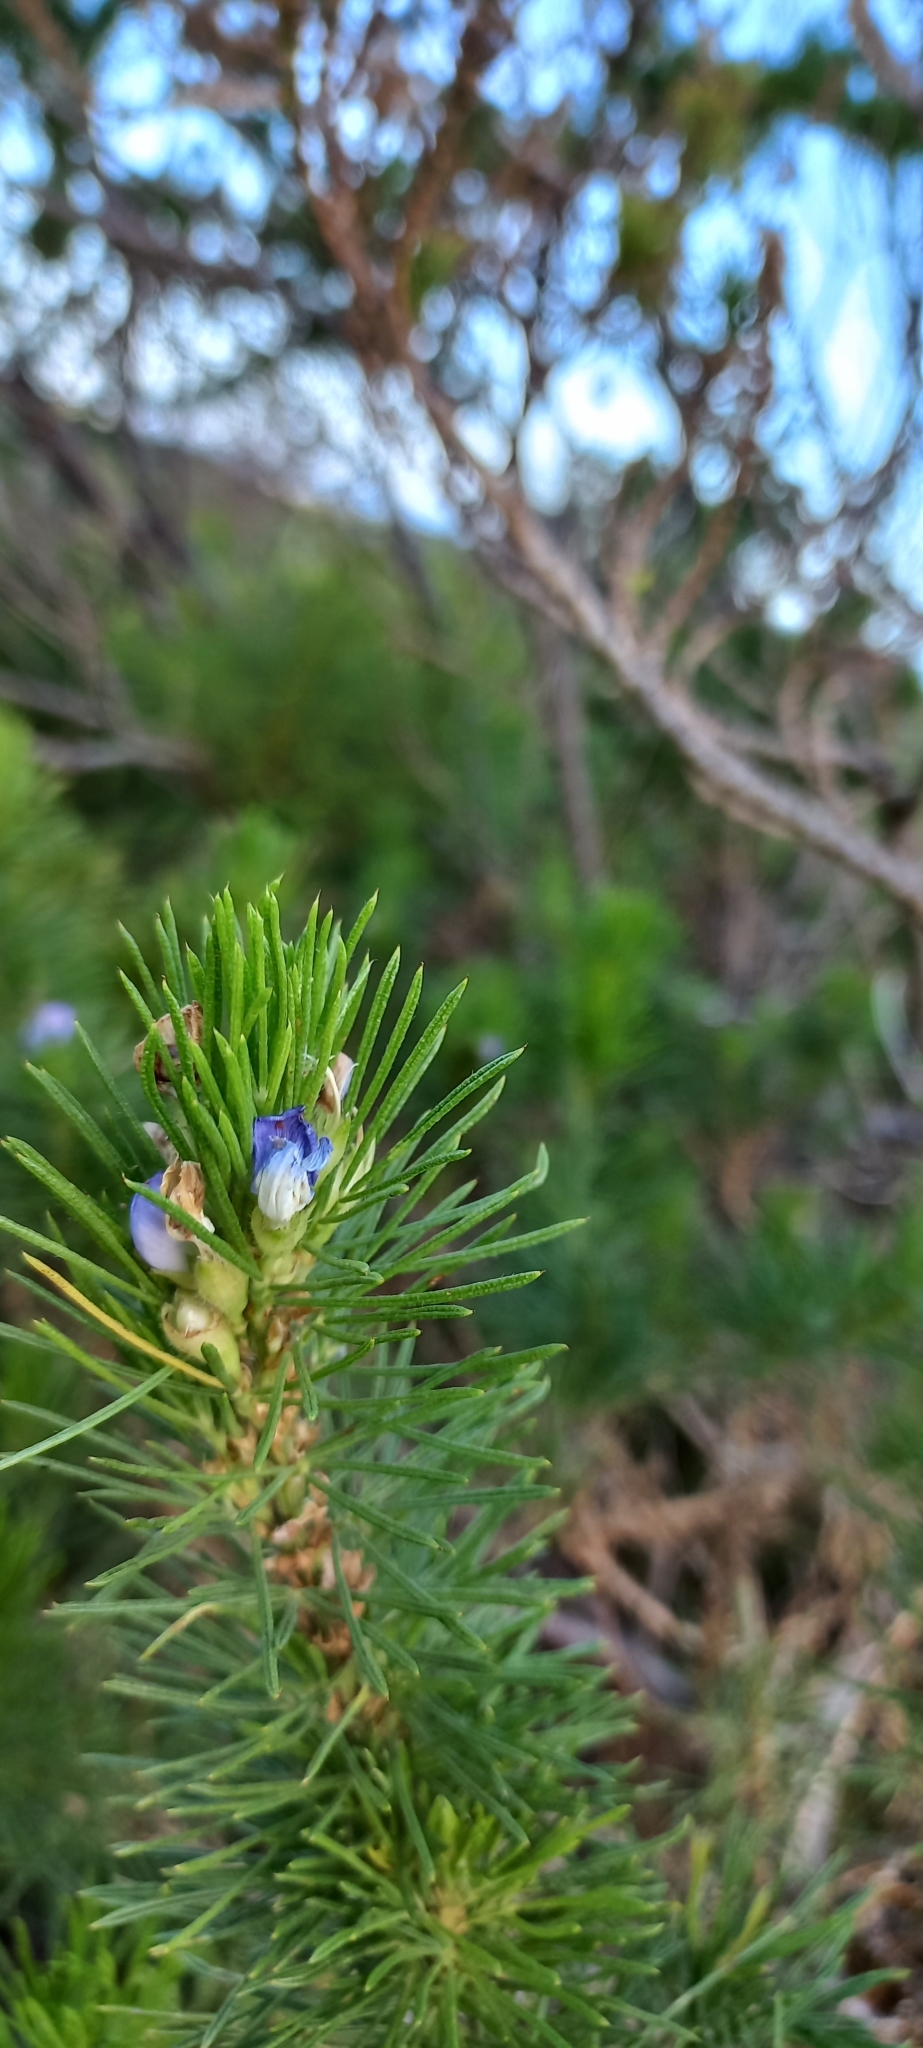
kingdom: Plantae
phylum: Tracheophyta
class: Magnoliopsida
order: Fabales
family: Fabaceae
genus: Psoralea
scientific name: Psoralea pinnata
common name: African scurfpea
